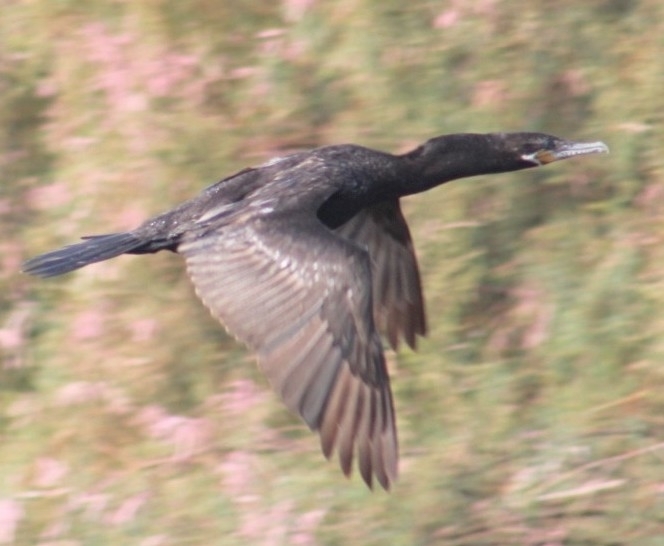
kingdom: Animalia
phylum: Chordata
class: Aves
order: Suliformes
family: Phalacrocoracidae
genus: Phalacrocorax
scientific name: Phalacrocorax brasilianus
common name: Neotropic cormorant
